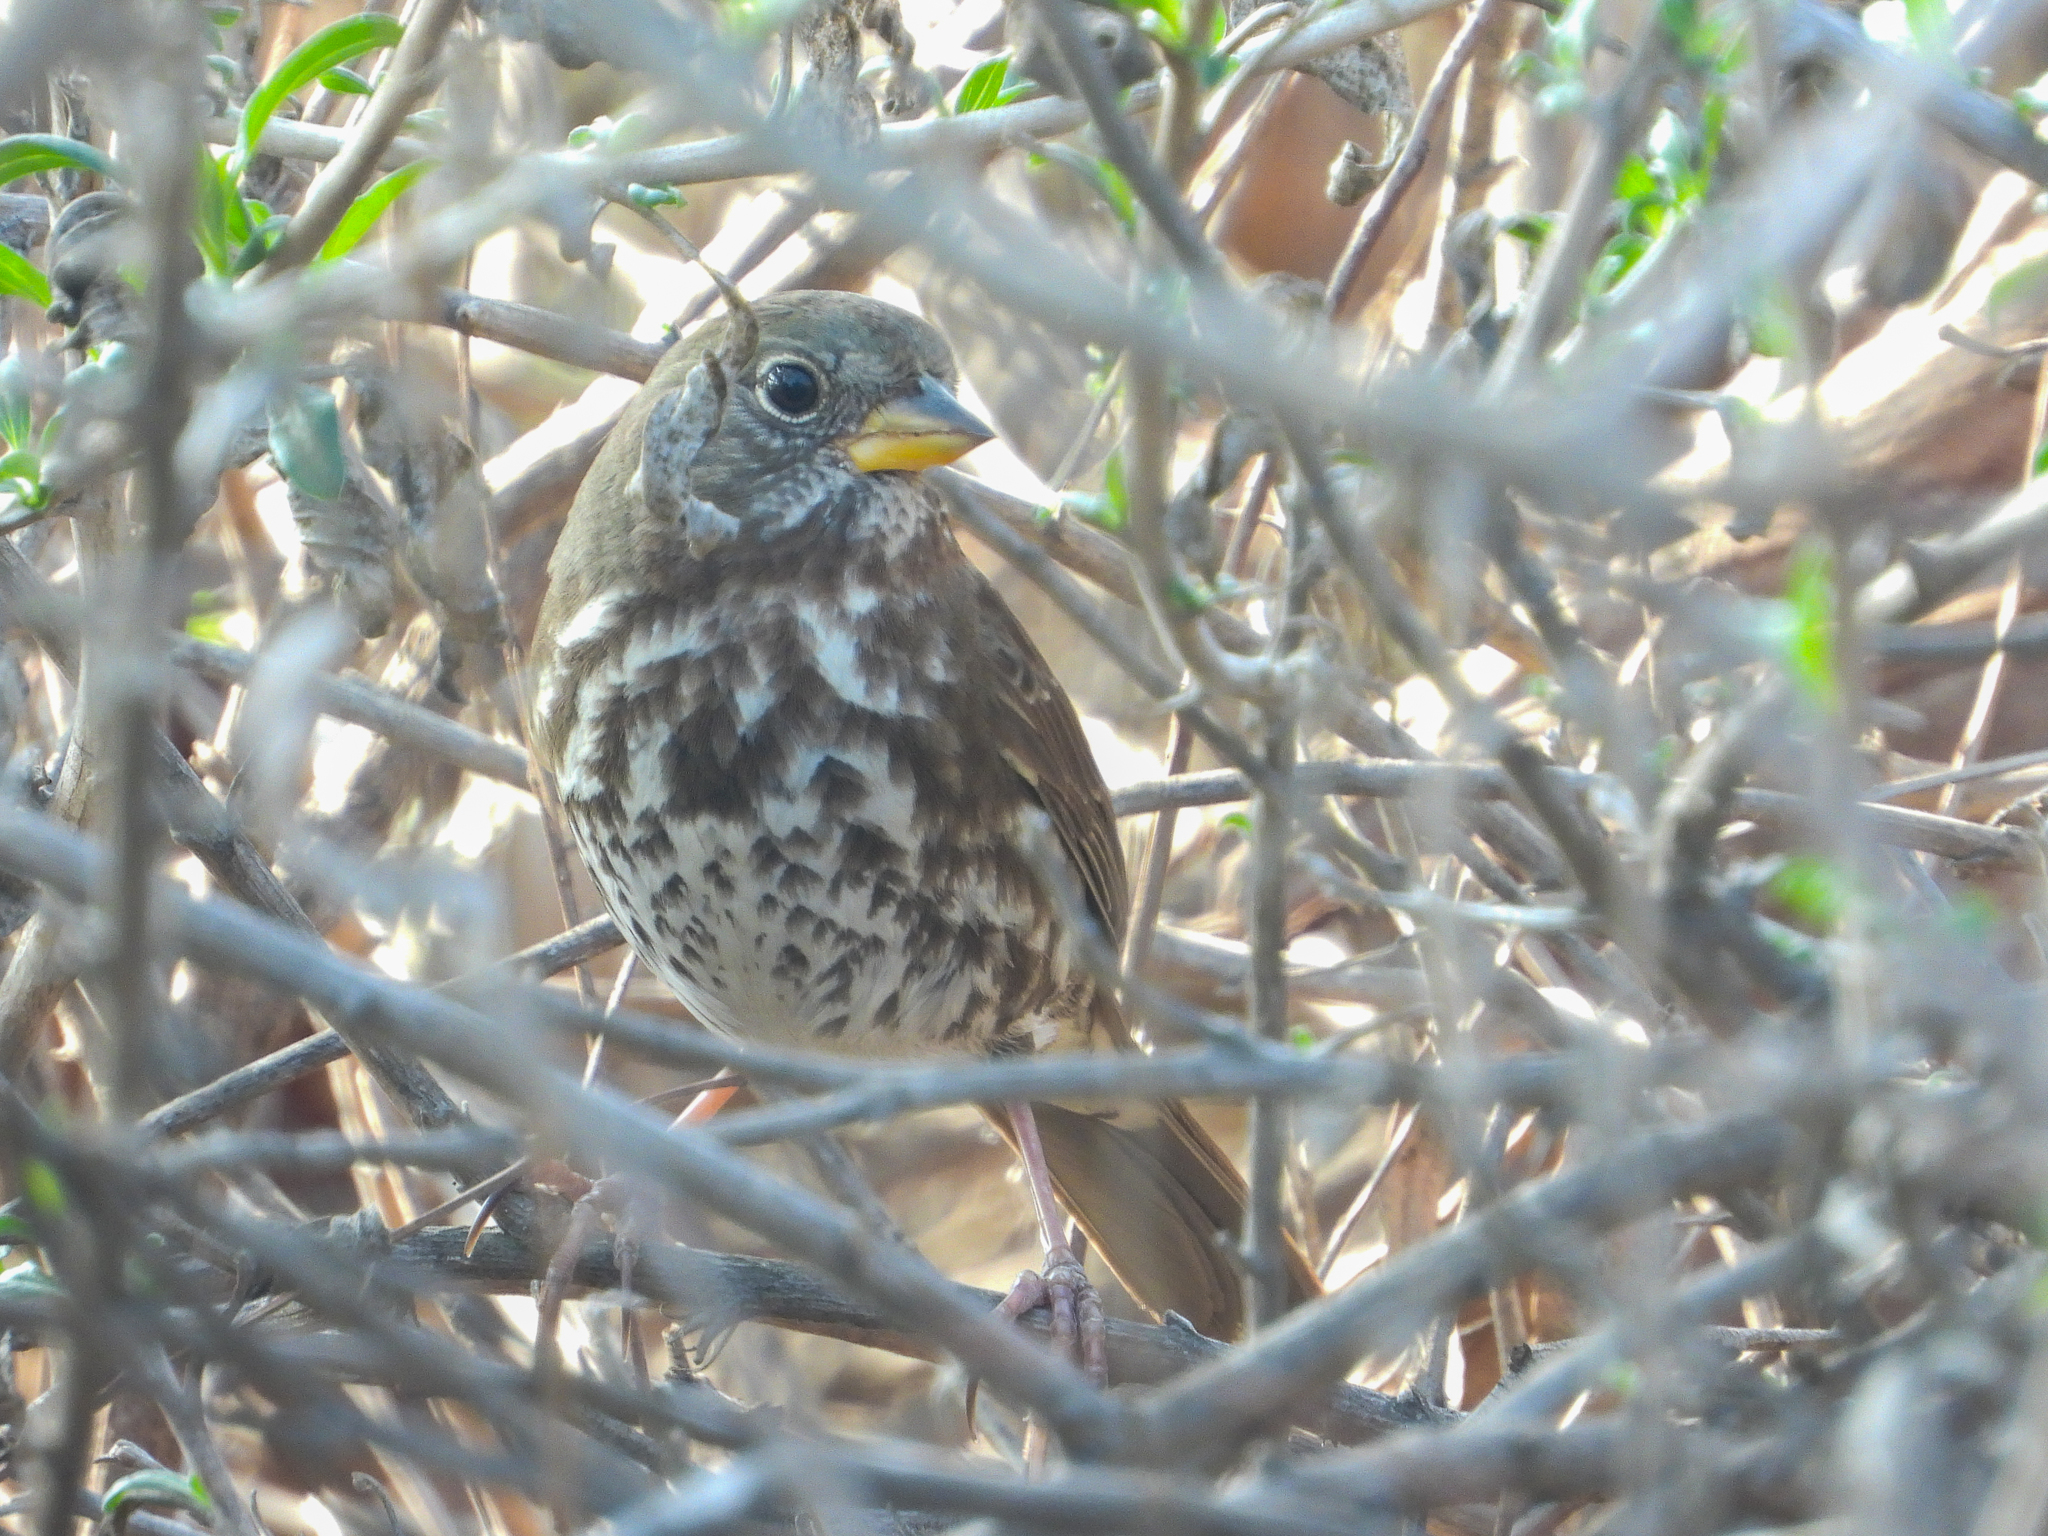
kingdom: Animalia
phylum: Chordata
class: Aves
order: Passeriformes
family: Passerellidae
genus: Passerella
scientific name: Passerella iliaca
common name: Fox sparrow
